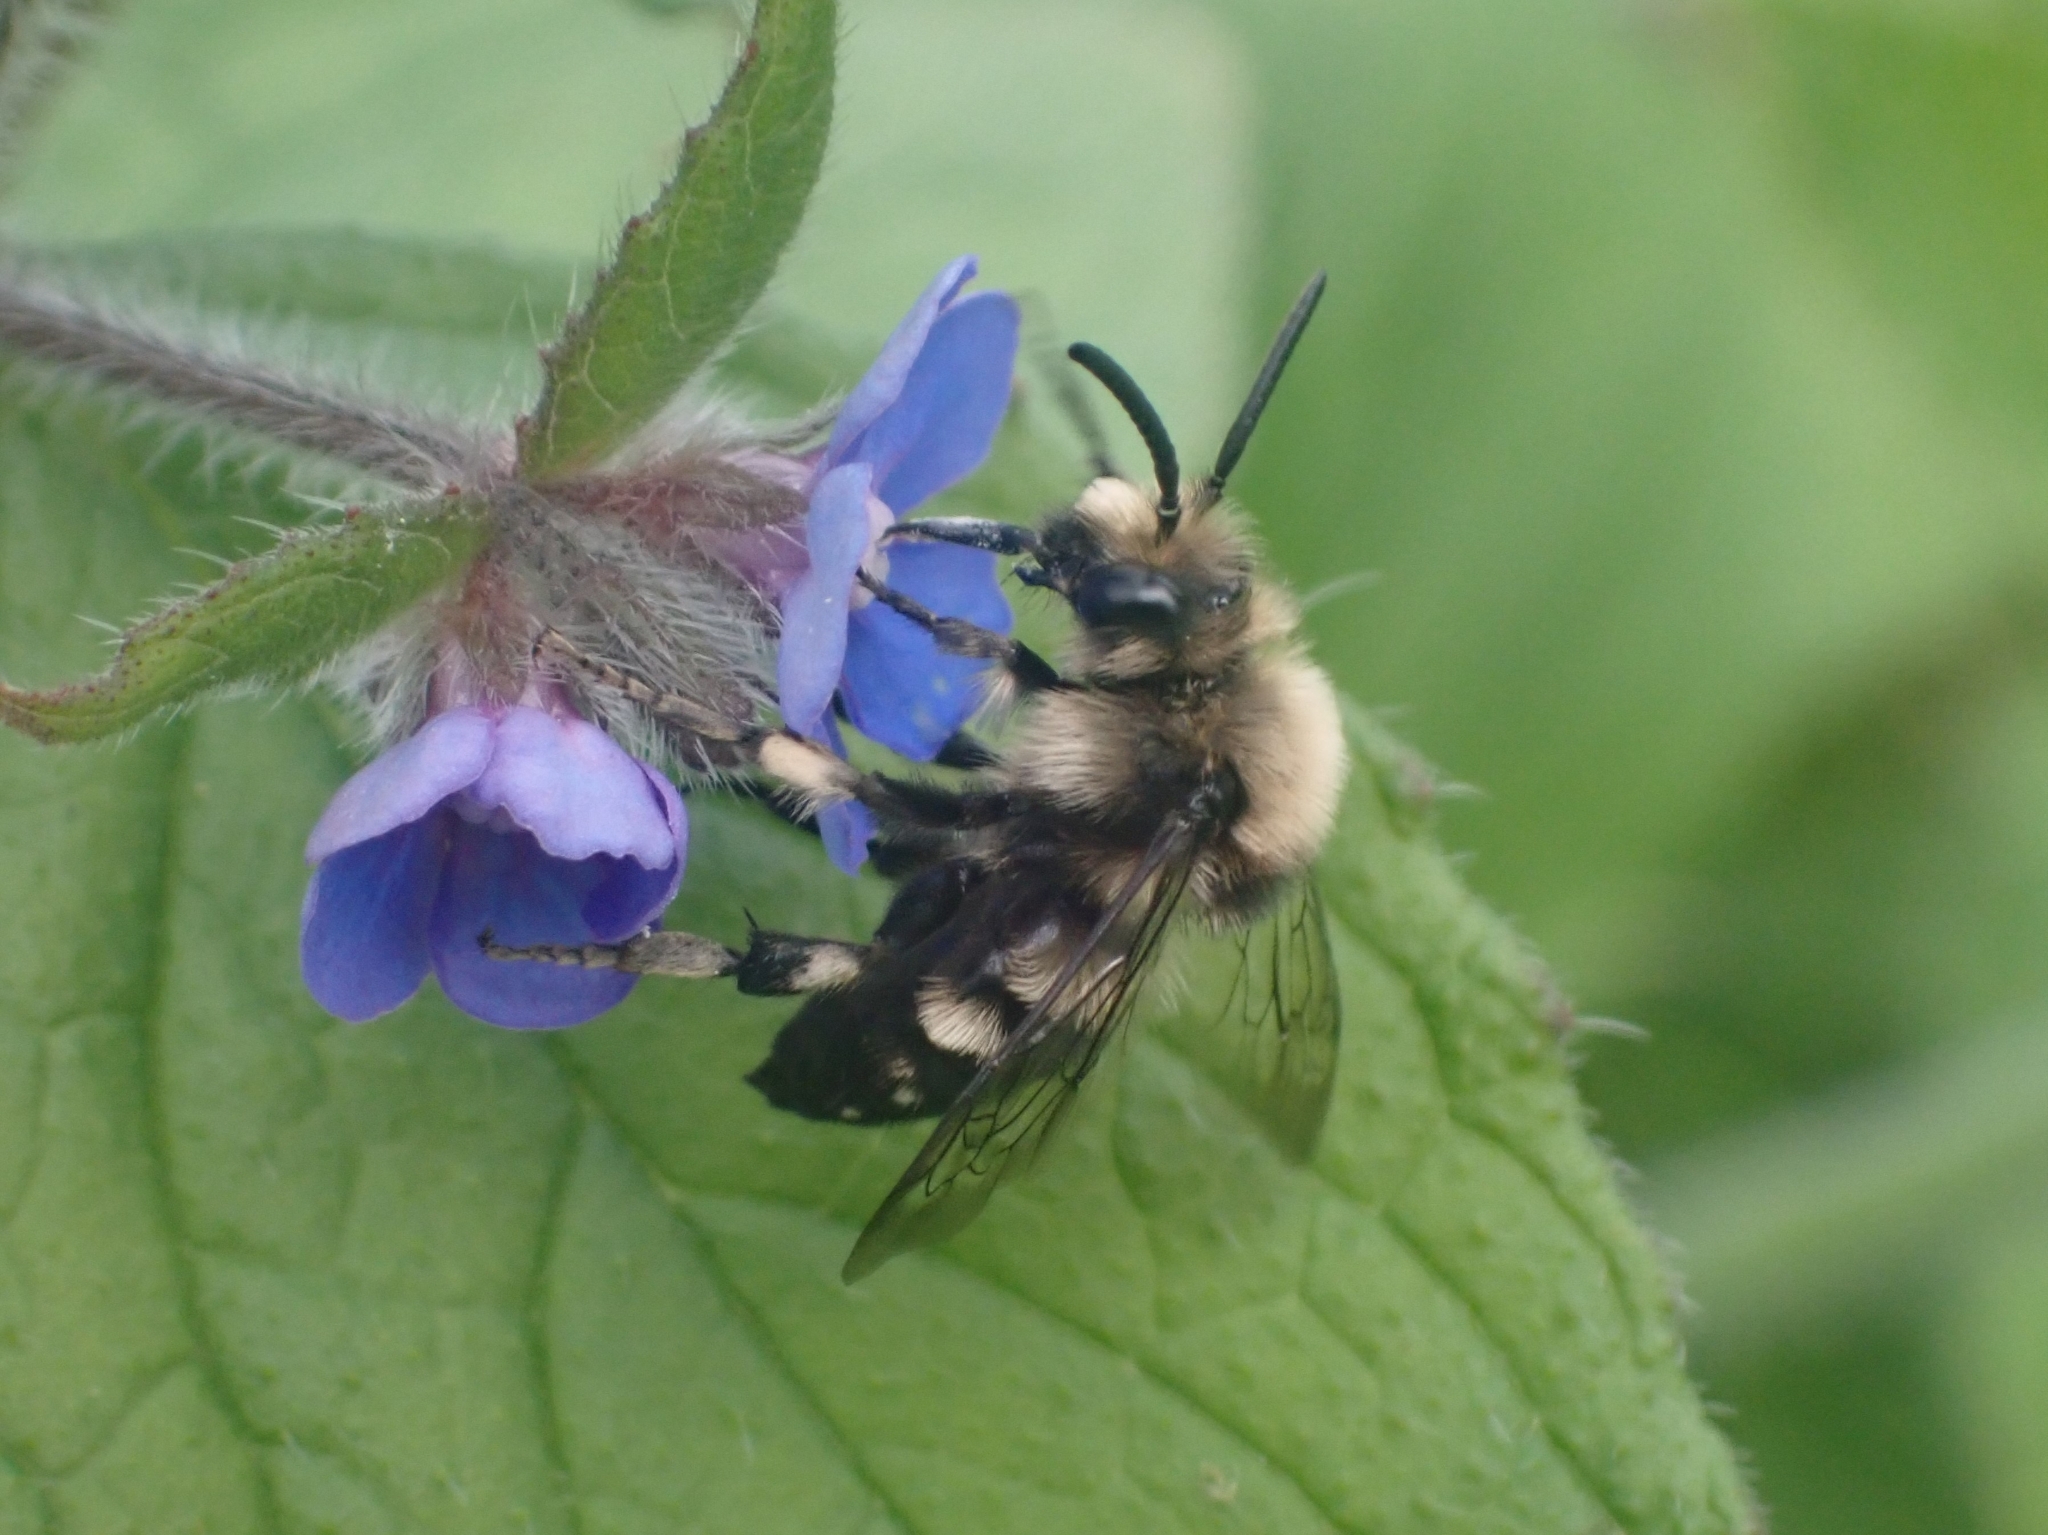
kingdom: Animalia
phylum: Arthropoda
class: Insecta
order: Hymenoptera
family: Apidae
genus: Melecta
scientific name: Melecta albifrons
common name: Common mourning bee
